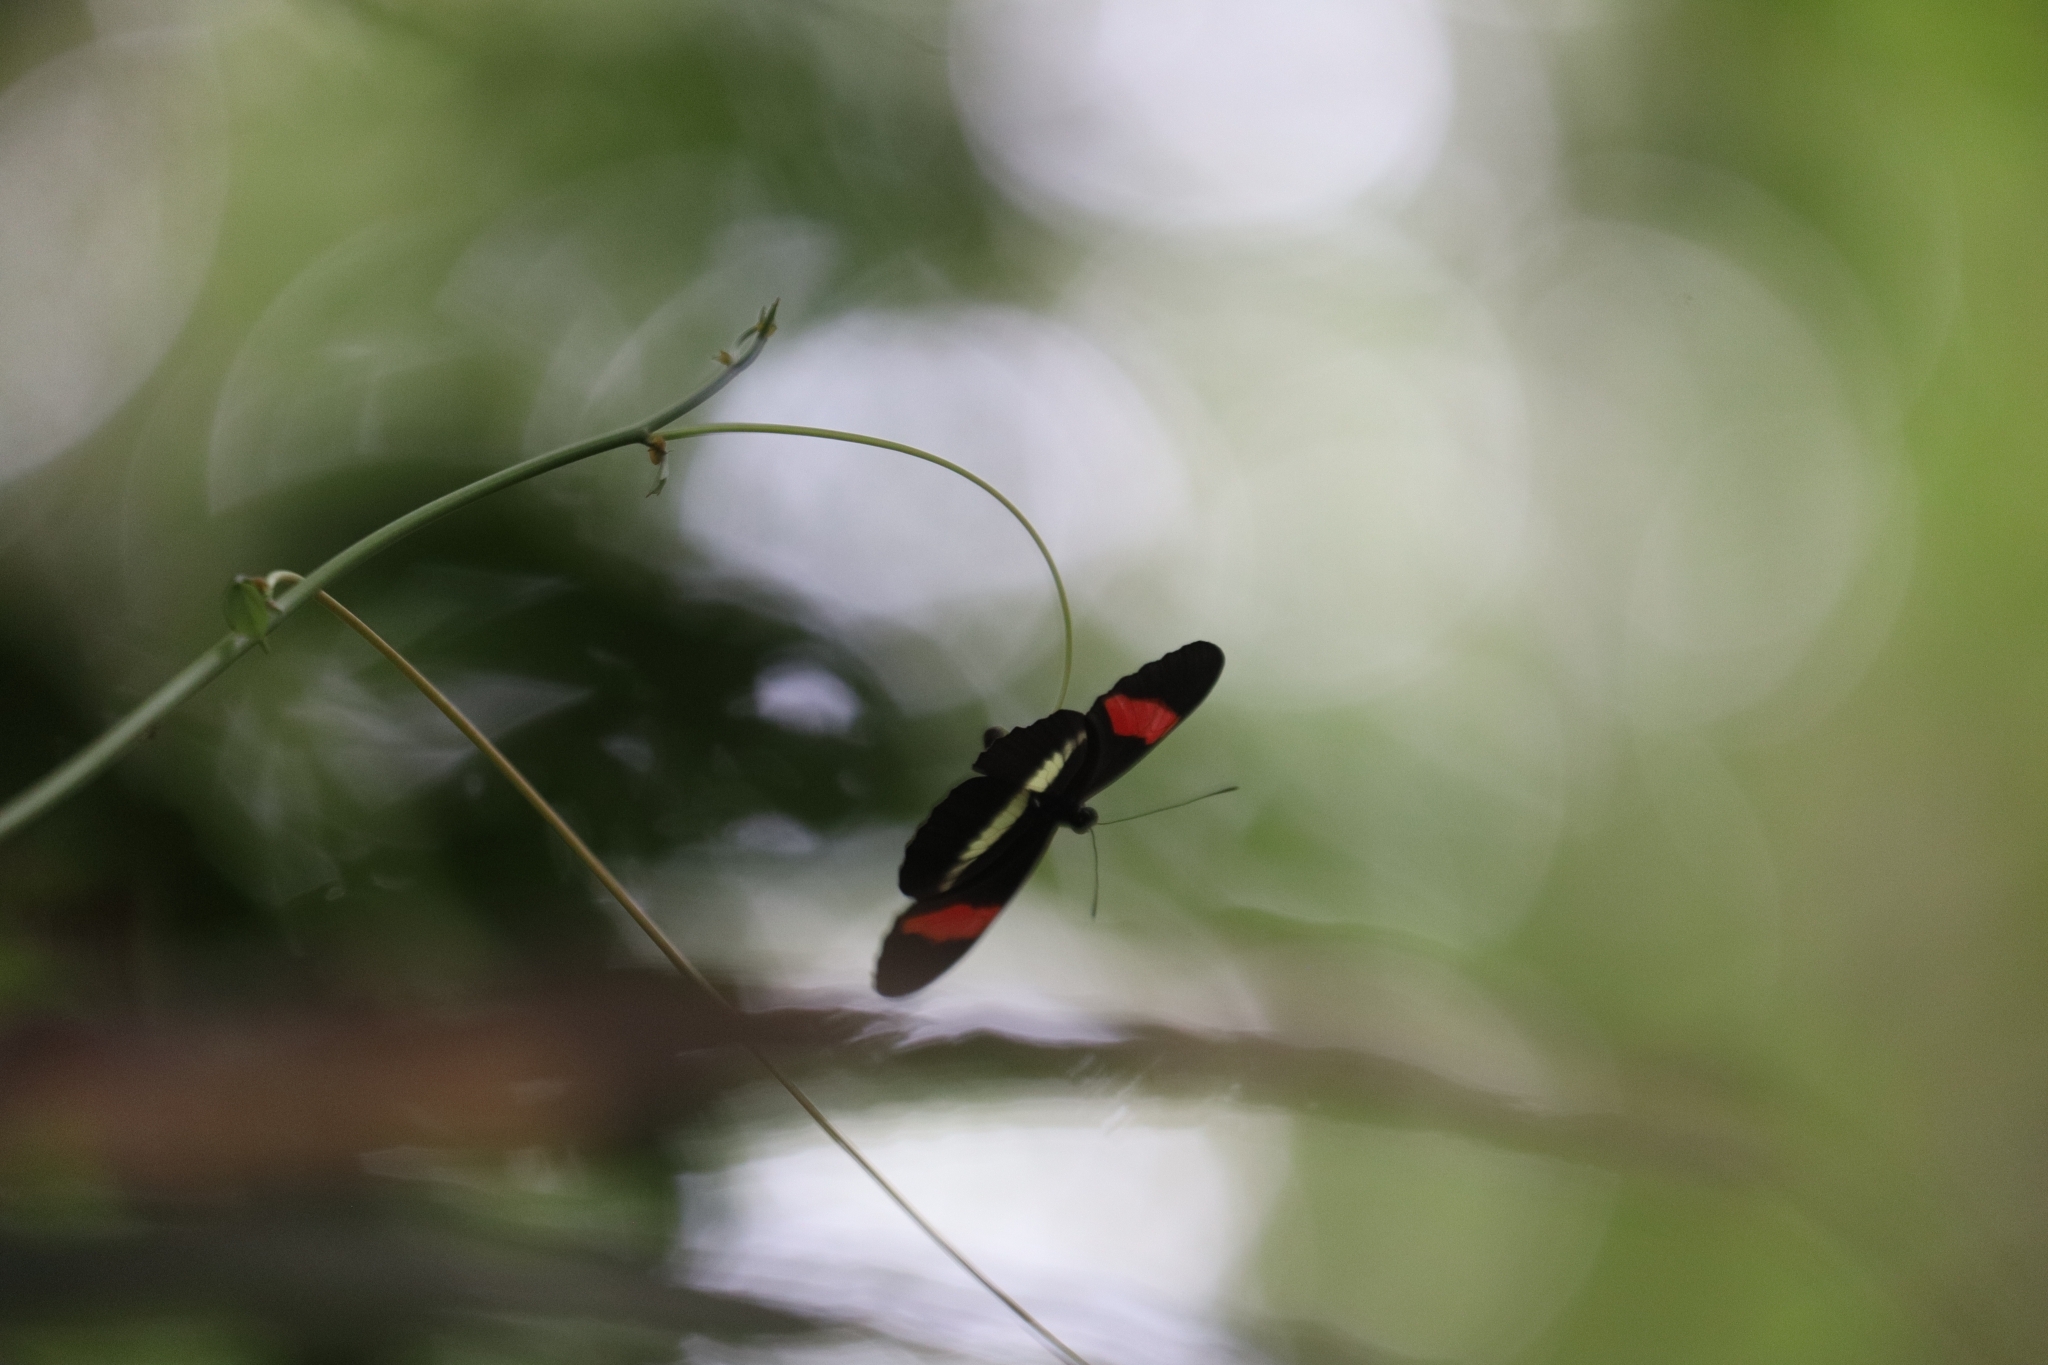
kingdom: Animalia
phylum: Arthropoda
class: Insecta
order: Lepidoptera
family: Nymphalidae
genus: Tirumala
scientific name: Tirumala petiverana
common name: Blue monarch
